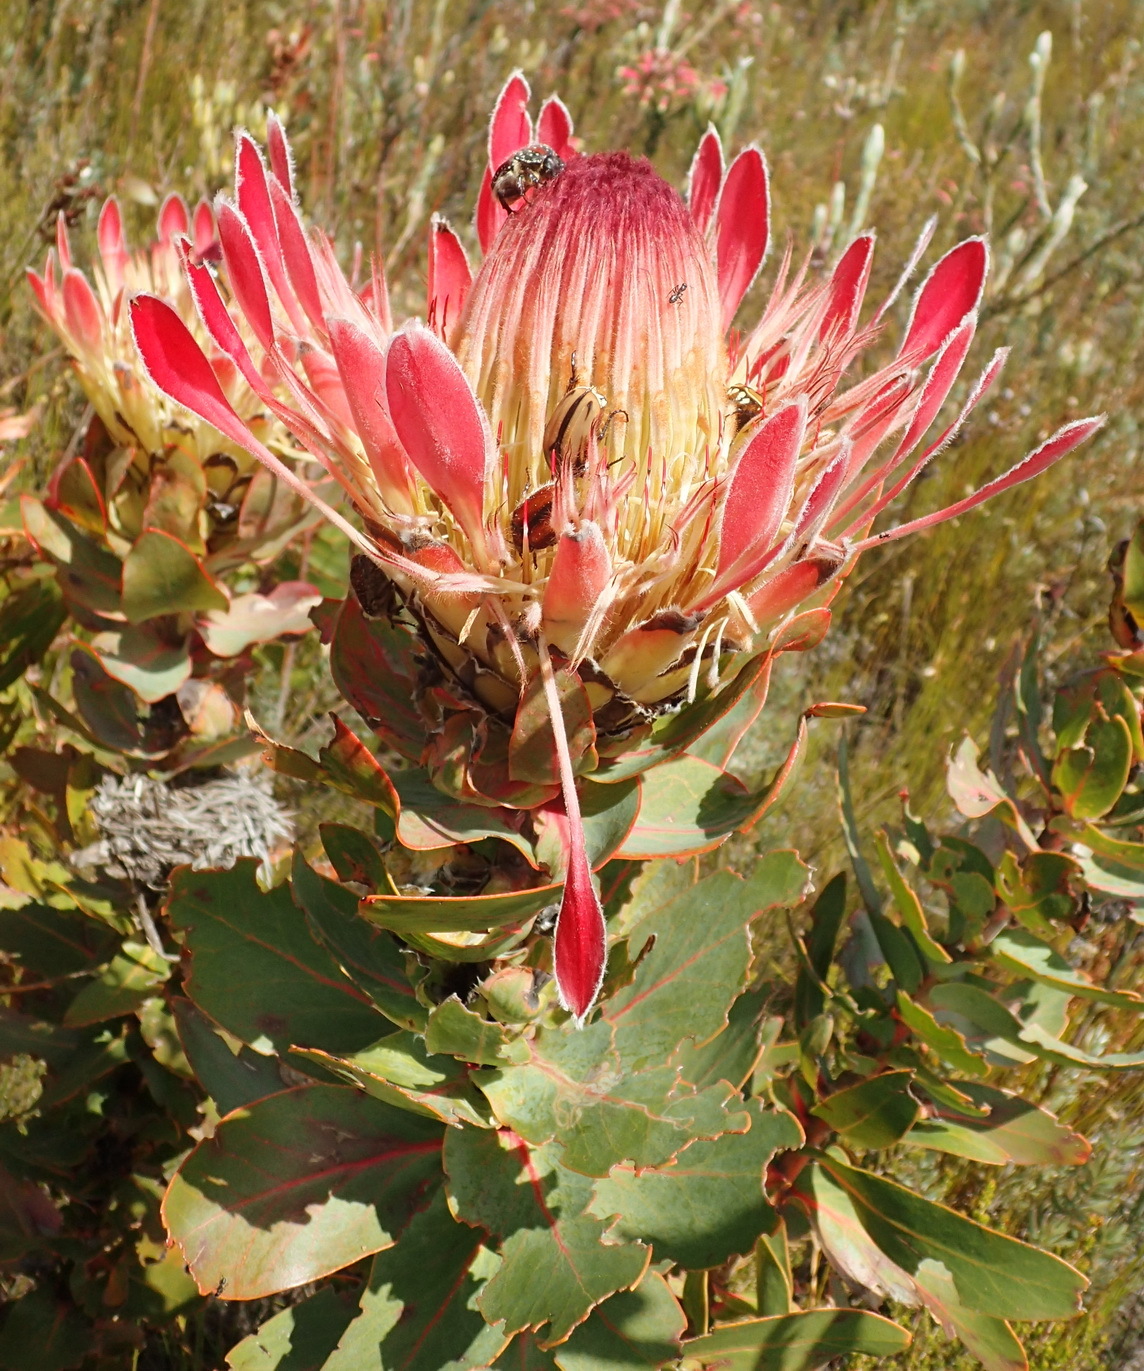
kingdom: Plantae
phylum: Tracheophyta
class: Magnoliopsida
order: Proteales
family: Proteaceae
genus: Protea
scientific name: Protea eximia
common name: Broad-leaved sugarbush
